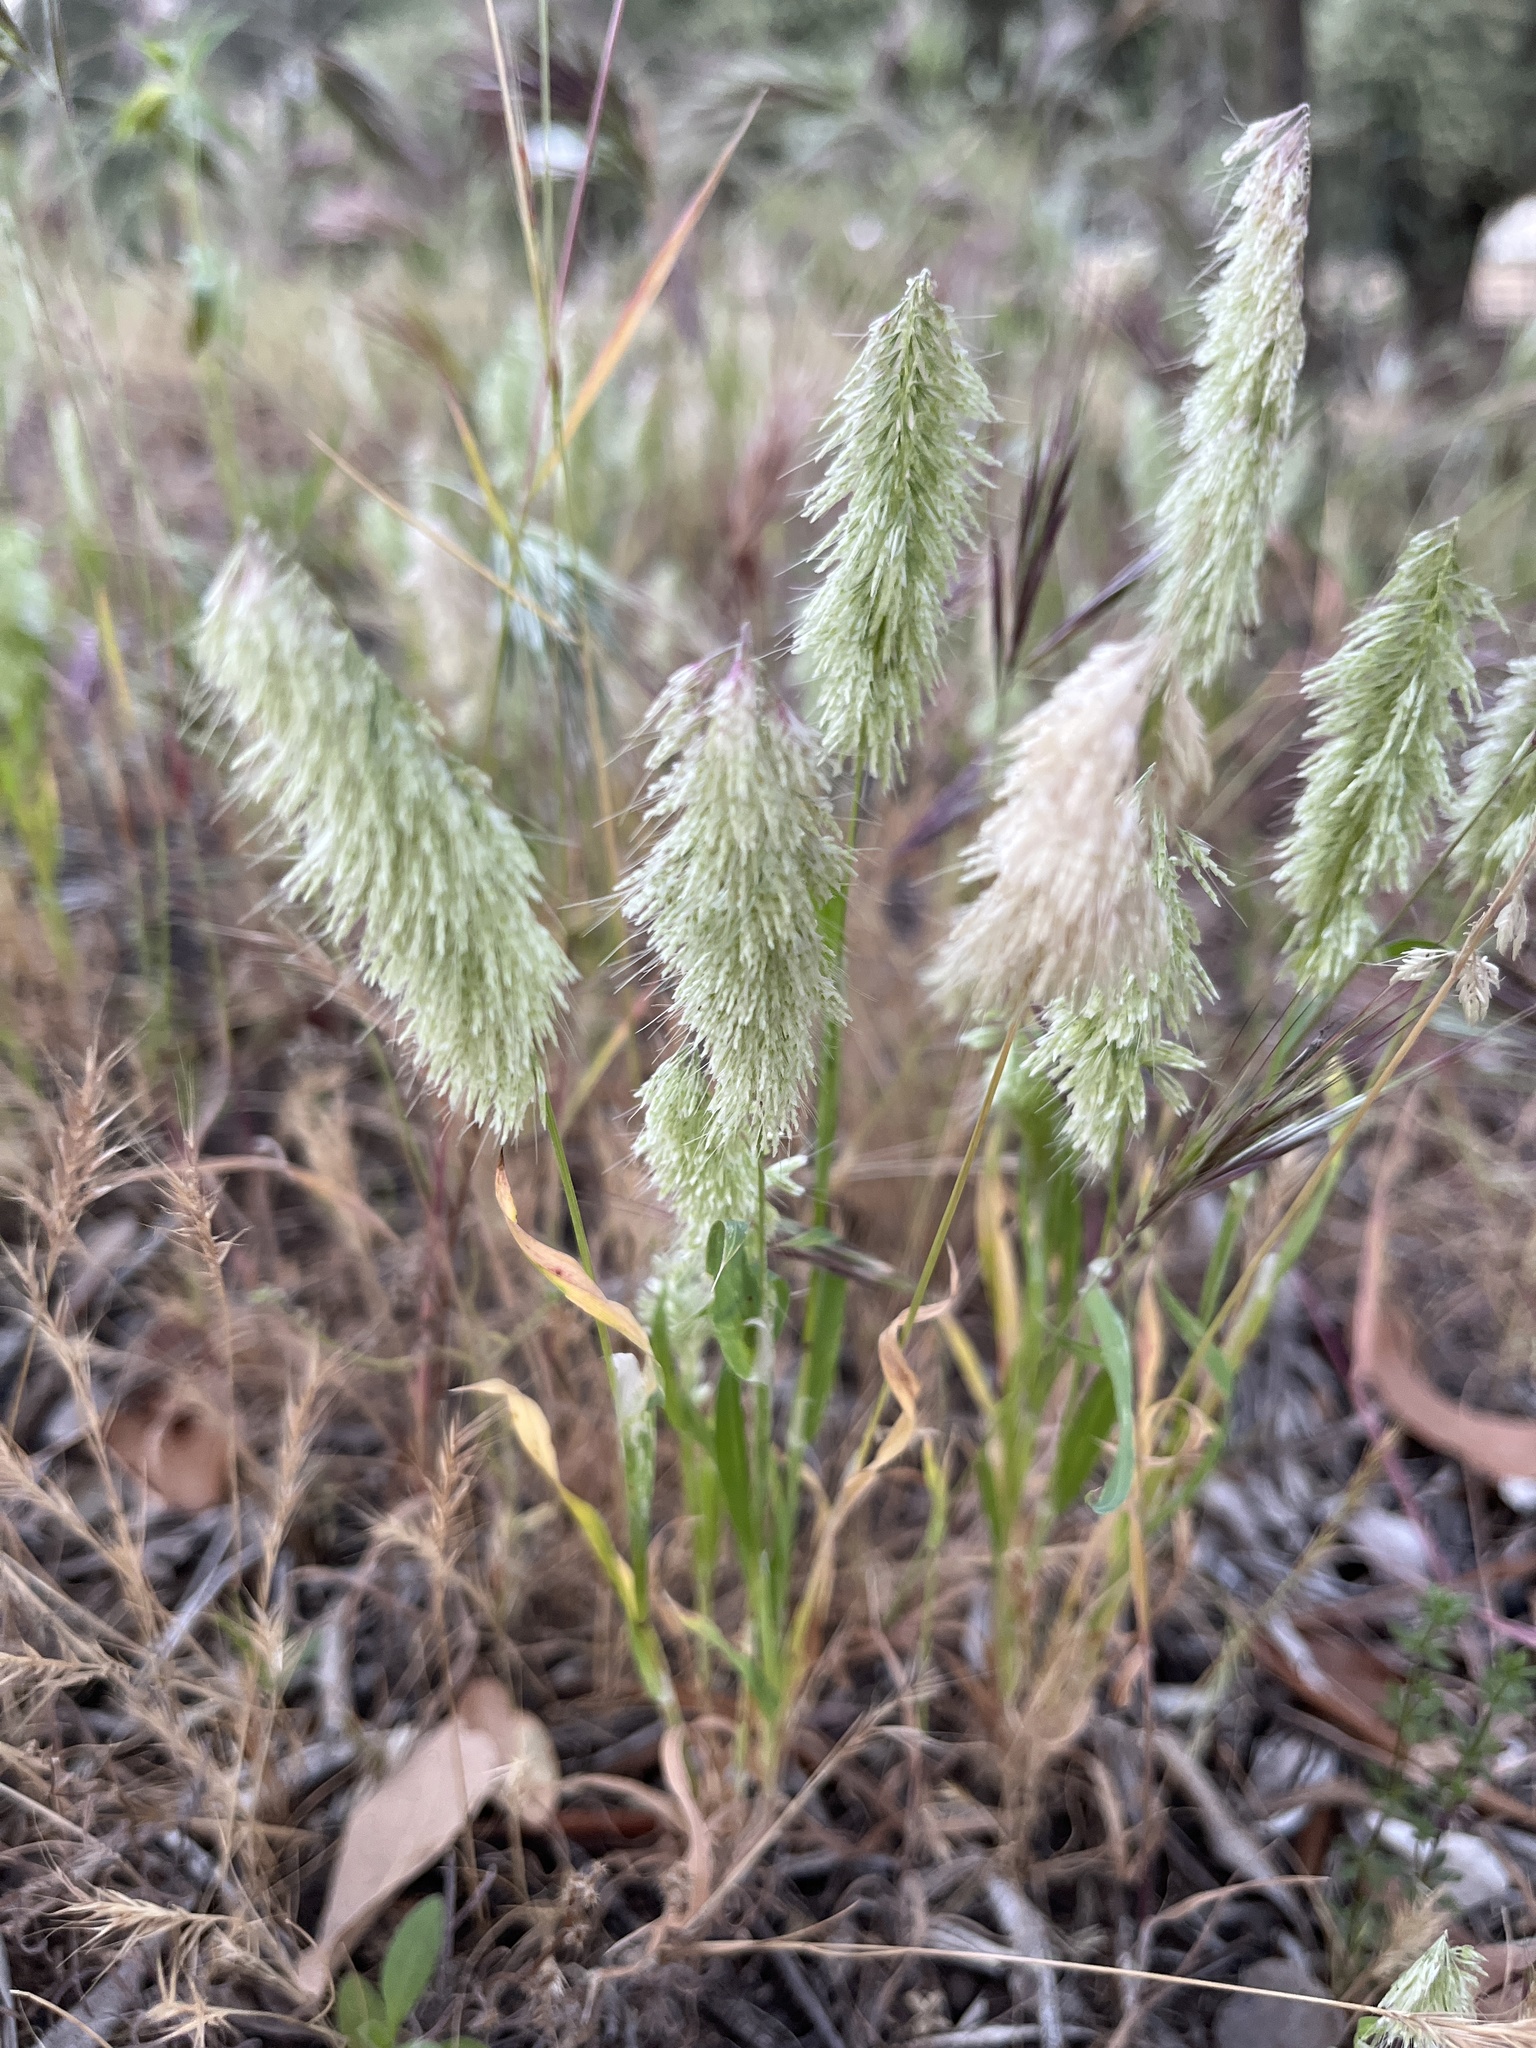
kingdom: Plantae
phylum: Tracheophyta
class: Liliopsida
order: Poales
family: Poaceae
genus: Lamarckia
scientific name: Lamarckia aurea
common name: Golden dog's-tail
